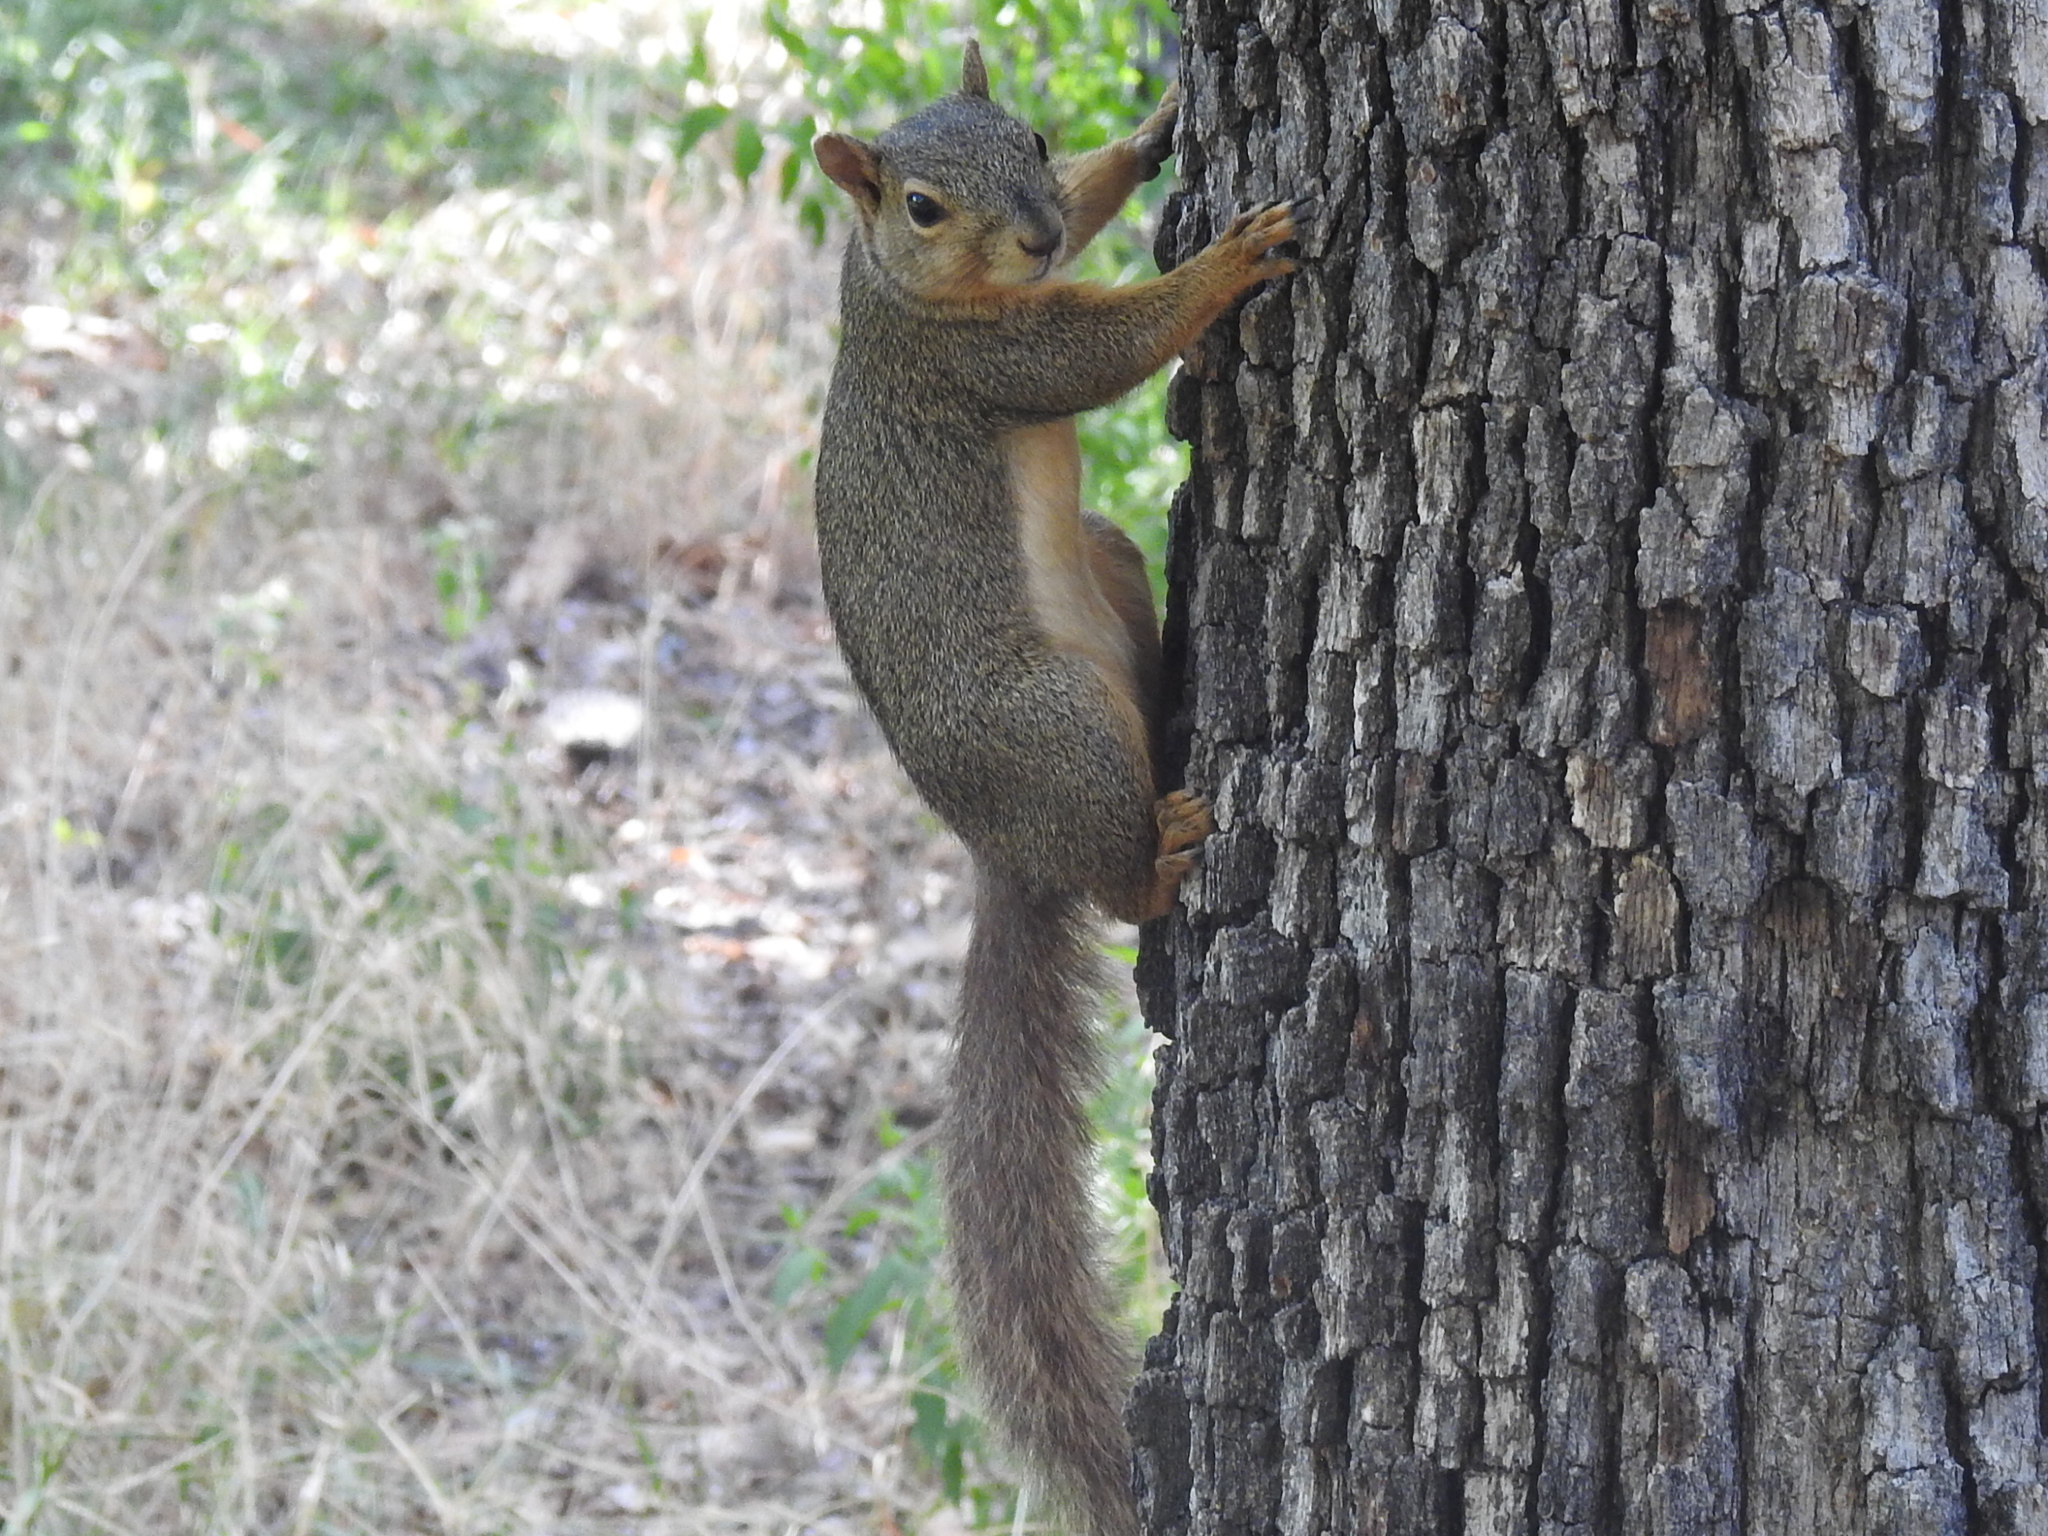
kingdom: Animalia
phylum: Chordata
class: Mammalia
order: Rodentia
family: Sciuridae
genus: Sciurus
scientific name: Sciurus niger
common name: Fox squirrel
